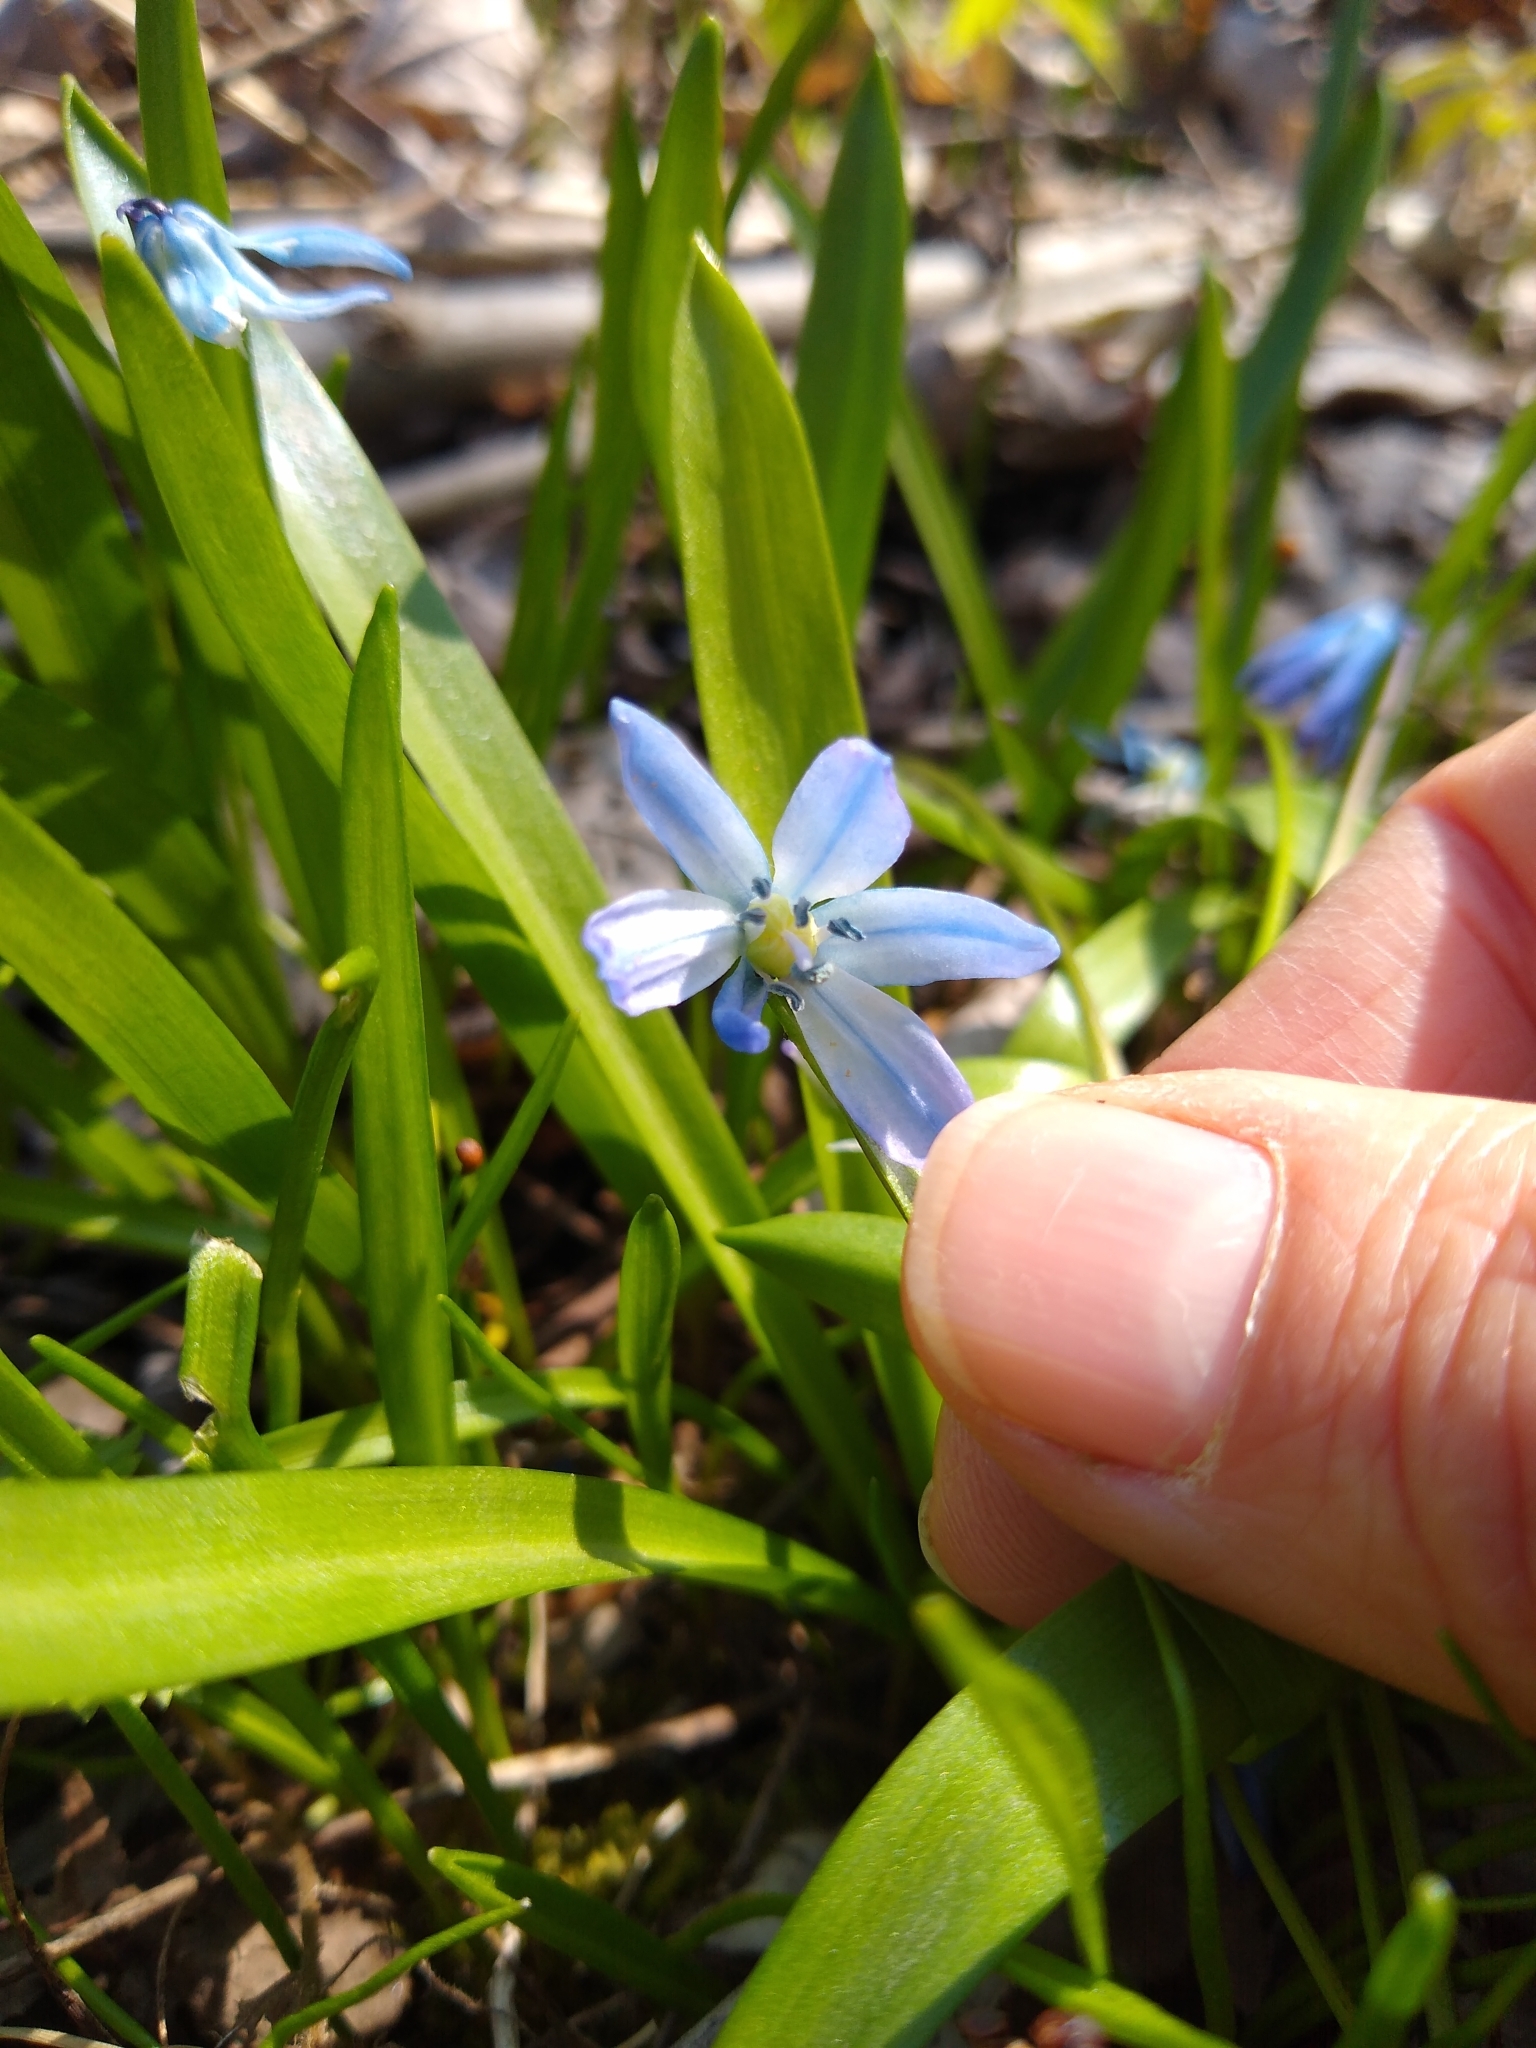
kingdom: Plantae
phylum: Tracheophyta
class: Liliopsida
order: Asparagales
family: Asparagaceae
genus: Scilla
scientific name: Scilla siberica
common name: Siberian squill
